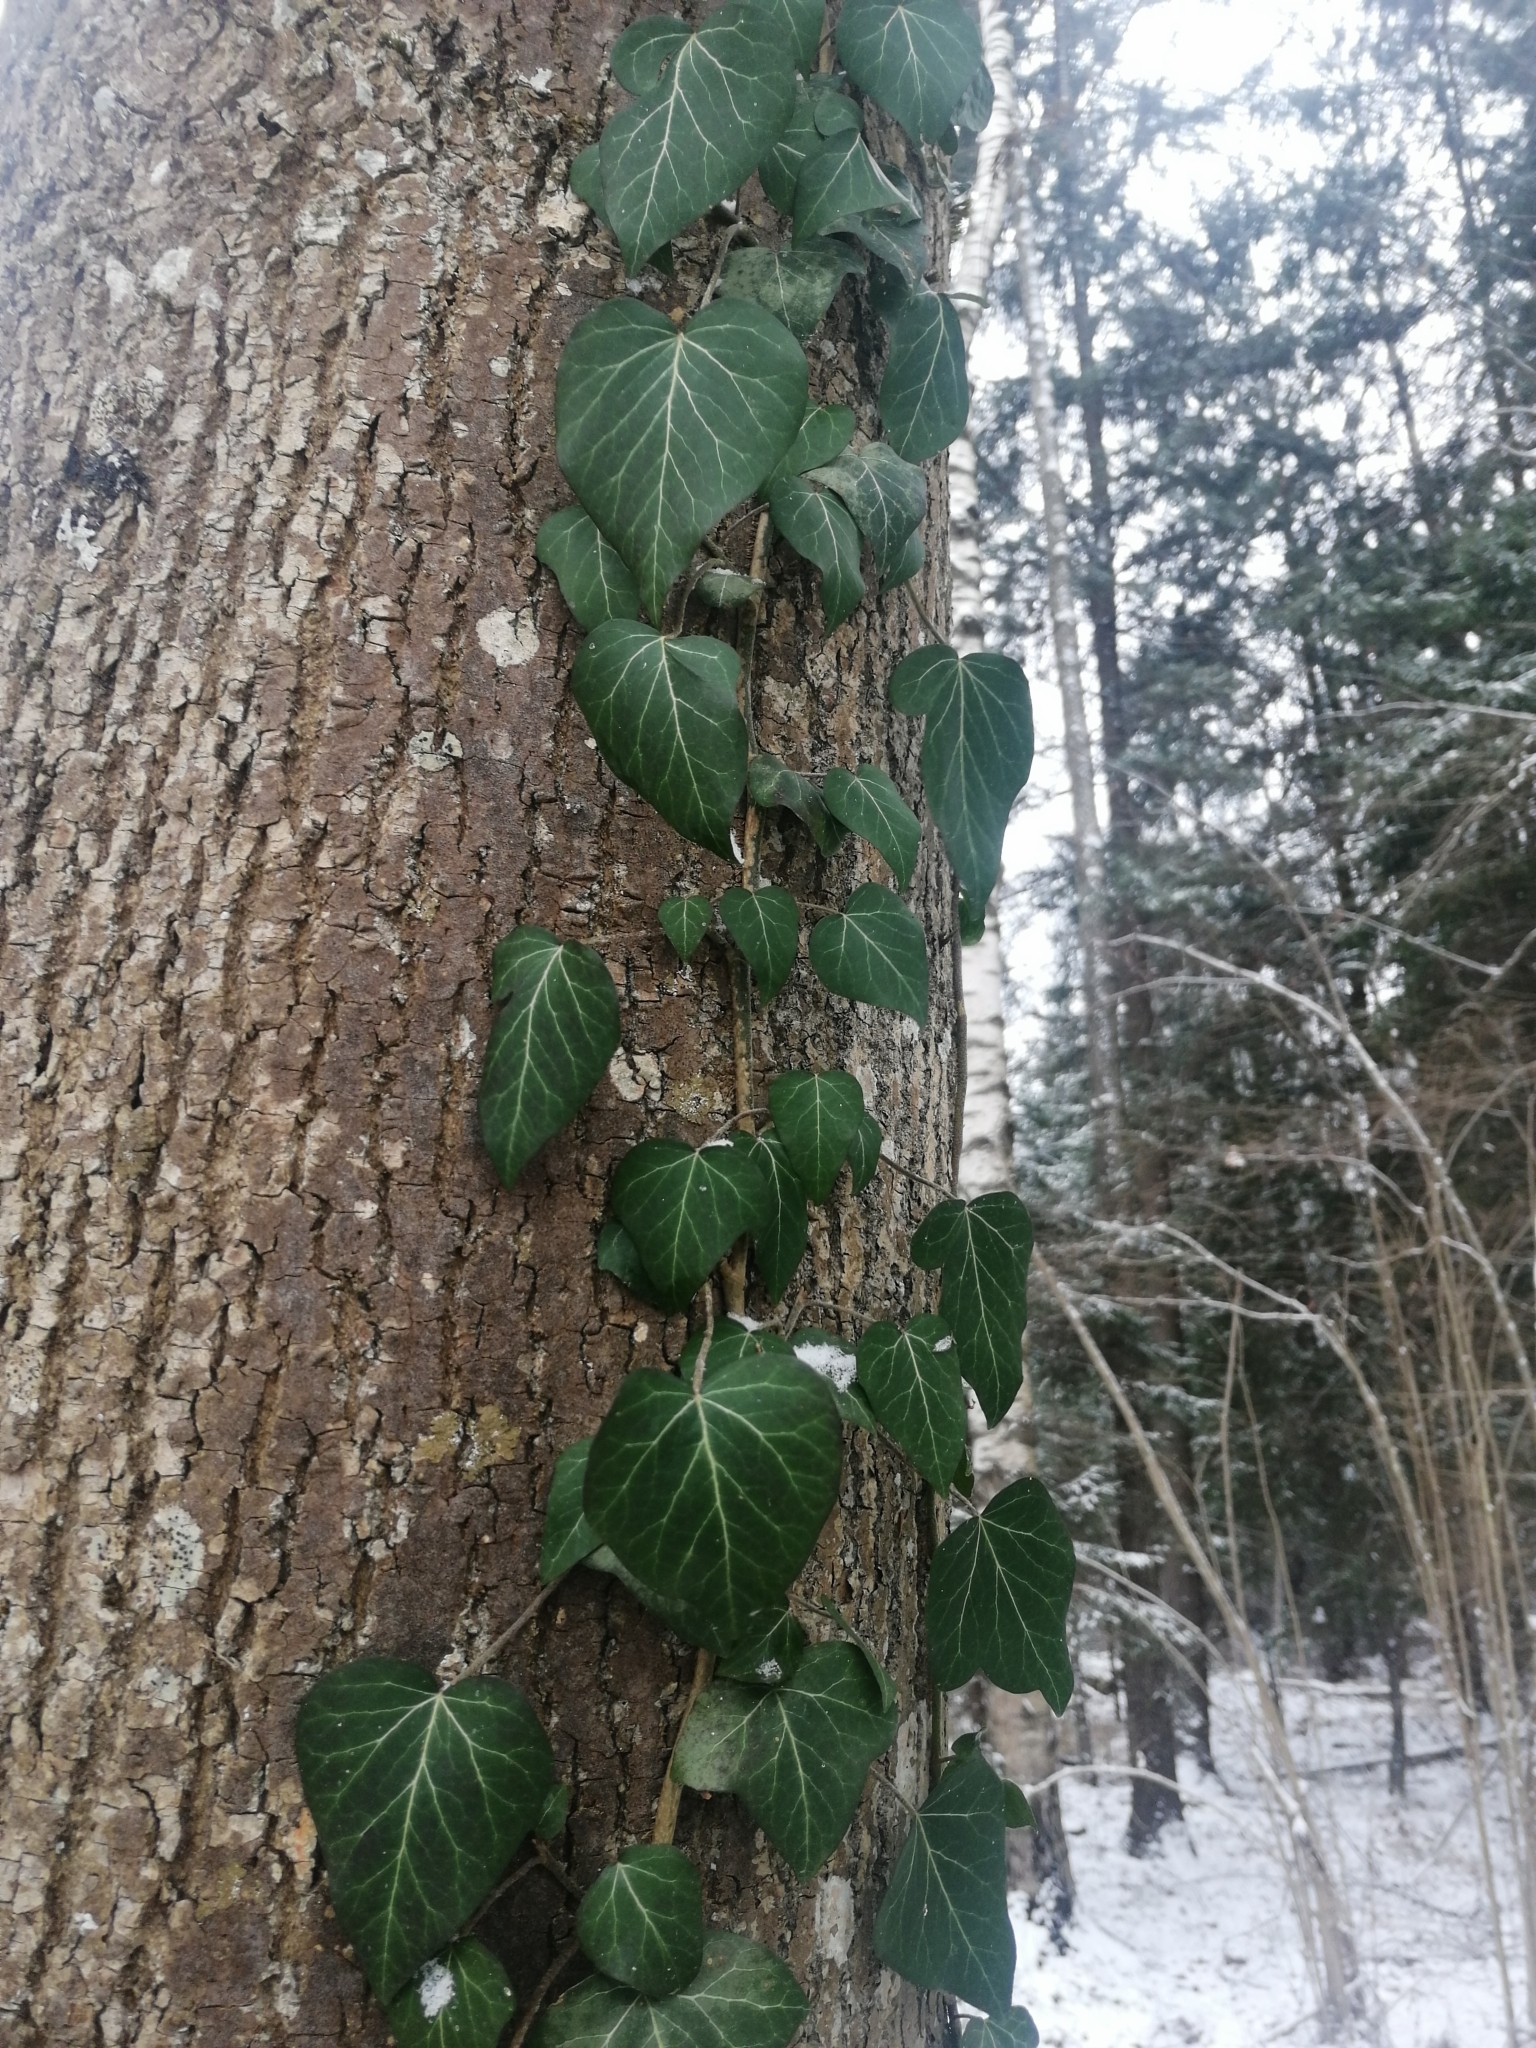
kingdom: Plantae
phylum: Tracheophyta
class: Magnoliopsida
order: Apiales
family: Araliaceae
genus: Hedera
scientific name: Hedera helix
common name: Ivy
